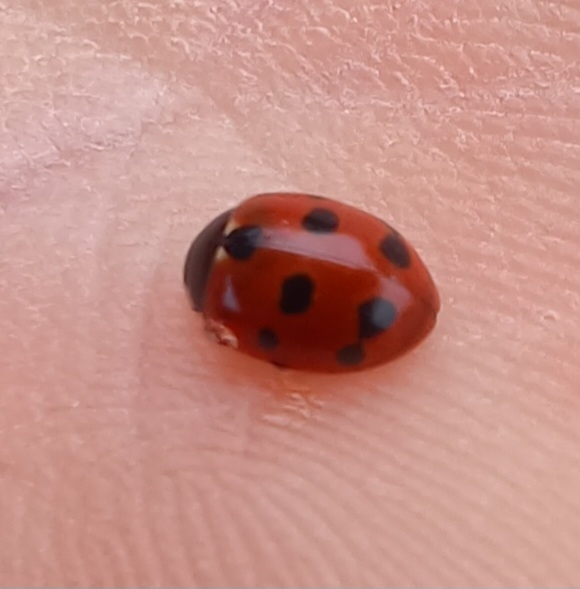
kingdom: Animalia
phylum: Arthropoda
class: Insecta
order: Coleoptera
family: Coccinellidae
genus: Coccinella
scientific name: Coccinella undecimpunctata
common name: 11-spot ladybird
